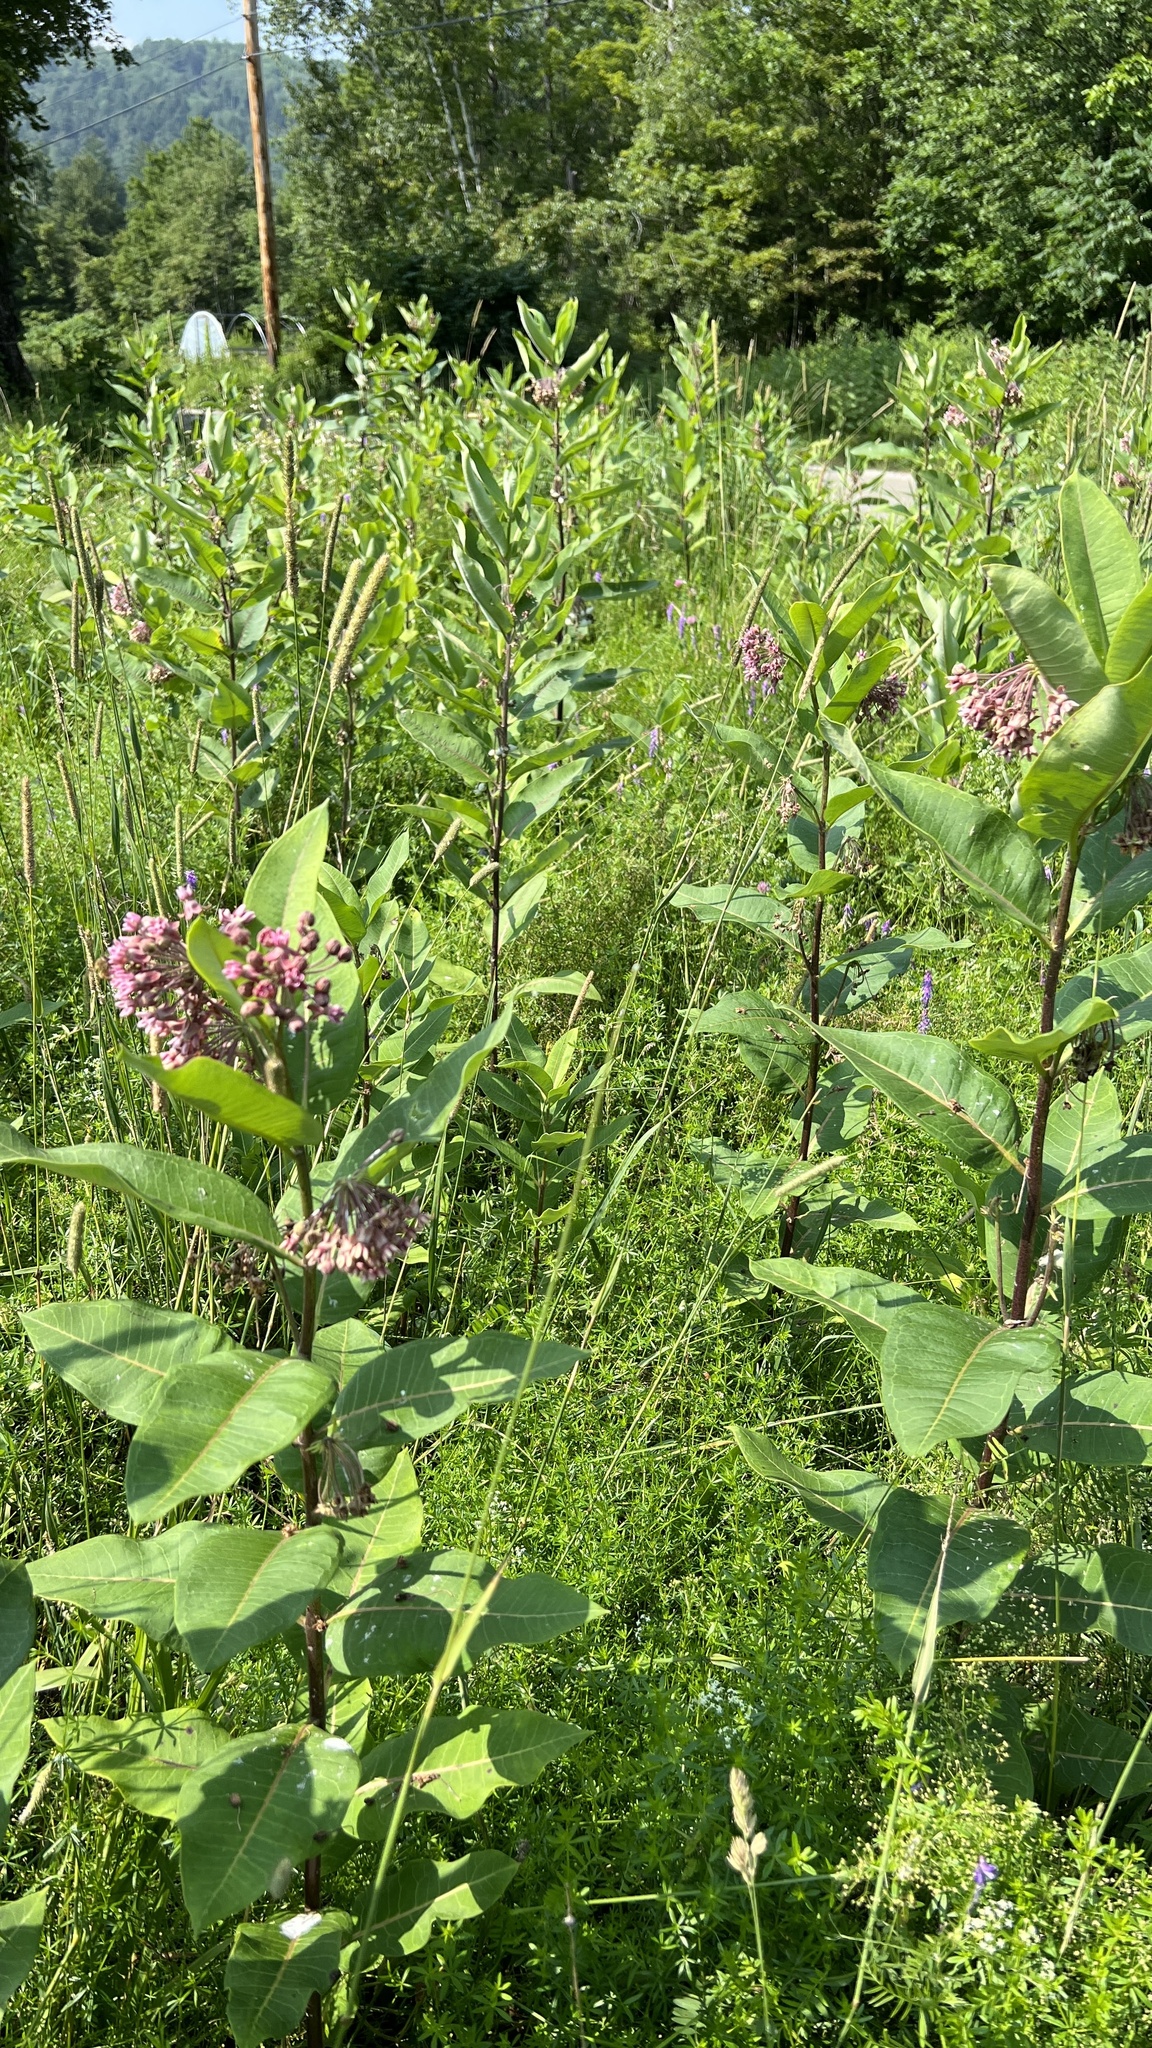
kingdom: Plantae
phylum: Tracheophyta
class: Magnoliopsida
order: Gentianales
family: Apocynaceae
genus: Asclepias
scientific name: Asclepias syriaca
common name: Common milkweed
